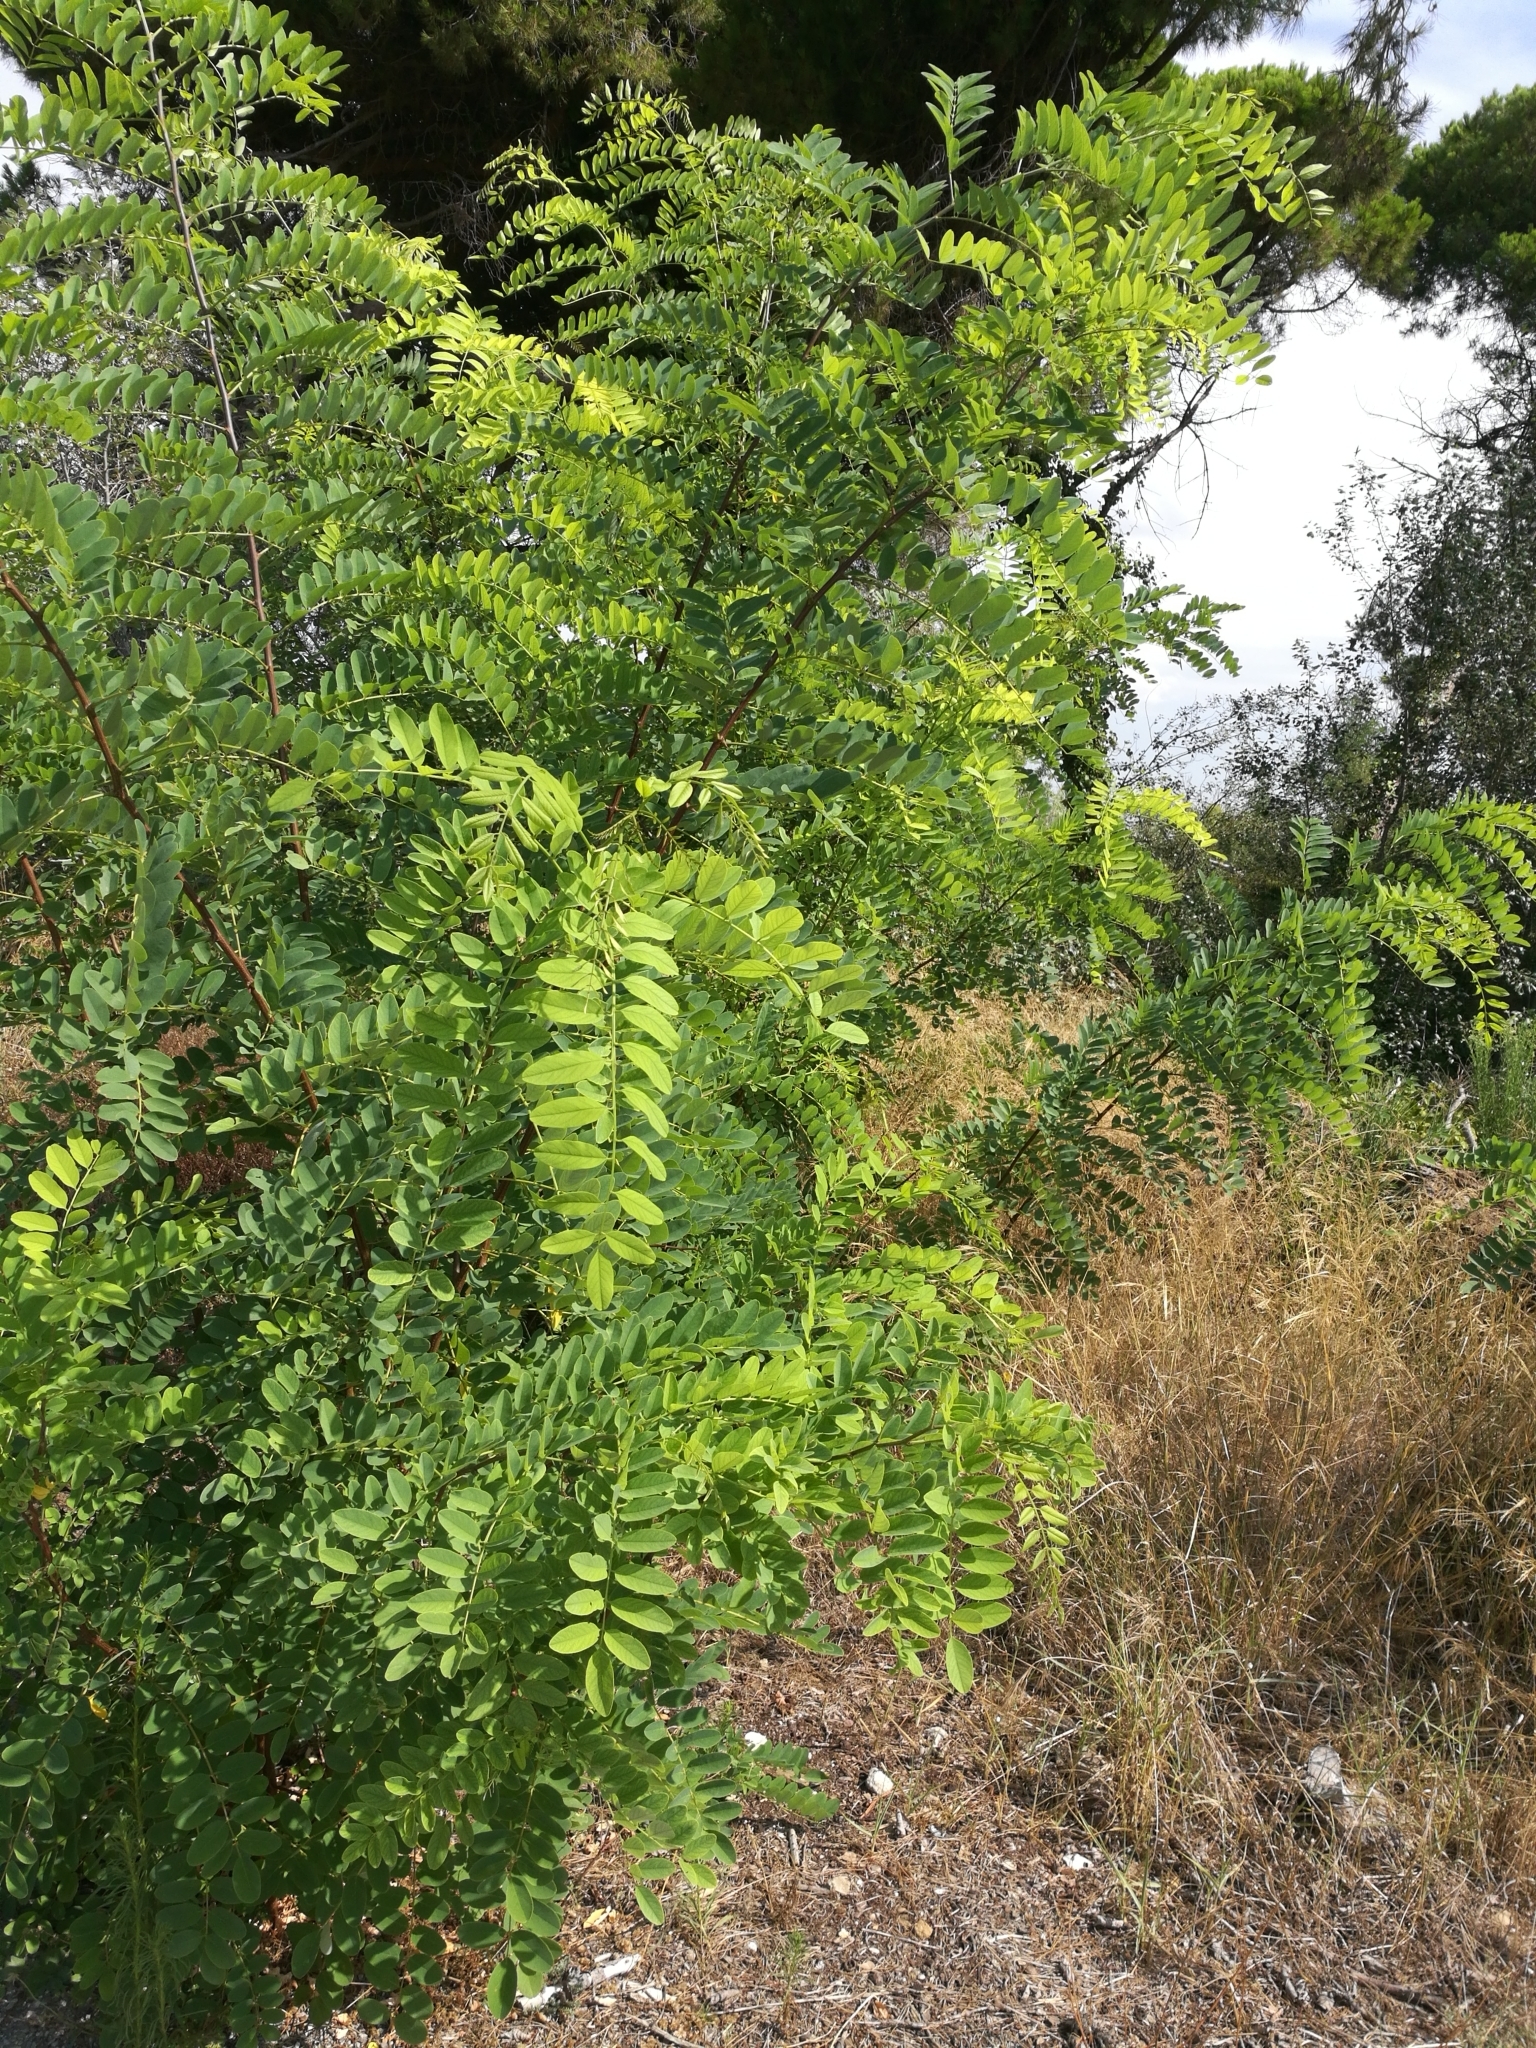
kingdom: Plantae
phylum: Tracheophyta
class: Magnoliopsida
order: Fabales
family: Fabaceae
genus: Robinia
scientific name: Robinia pseudoacacia
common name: Black locust
